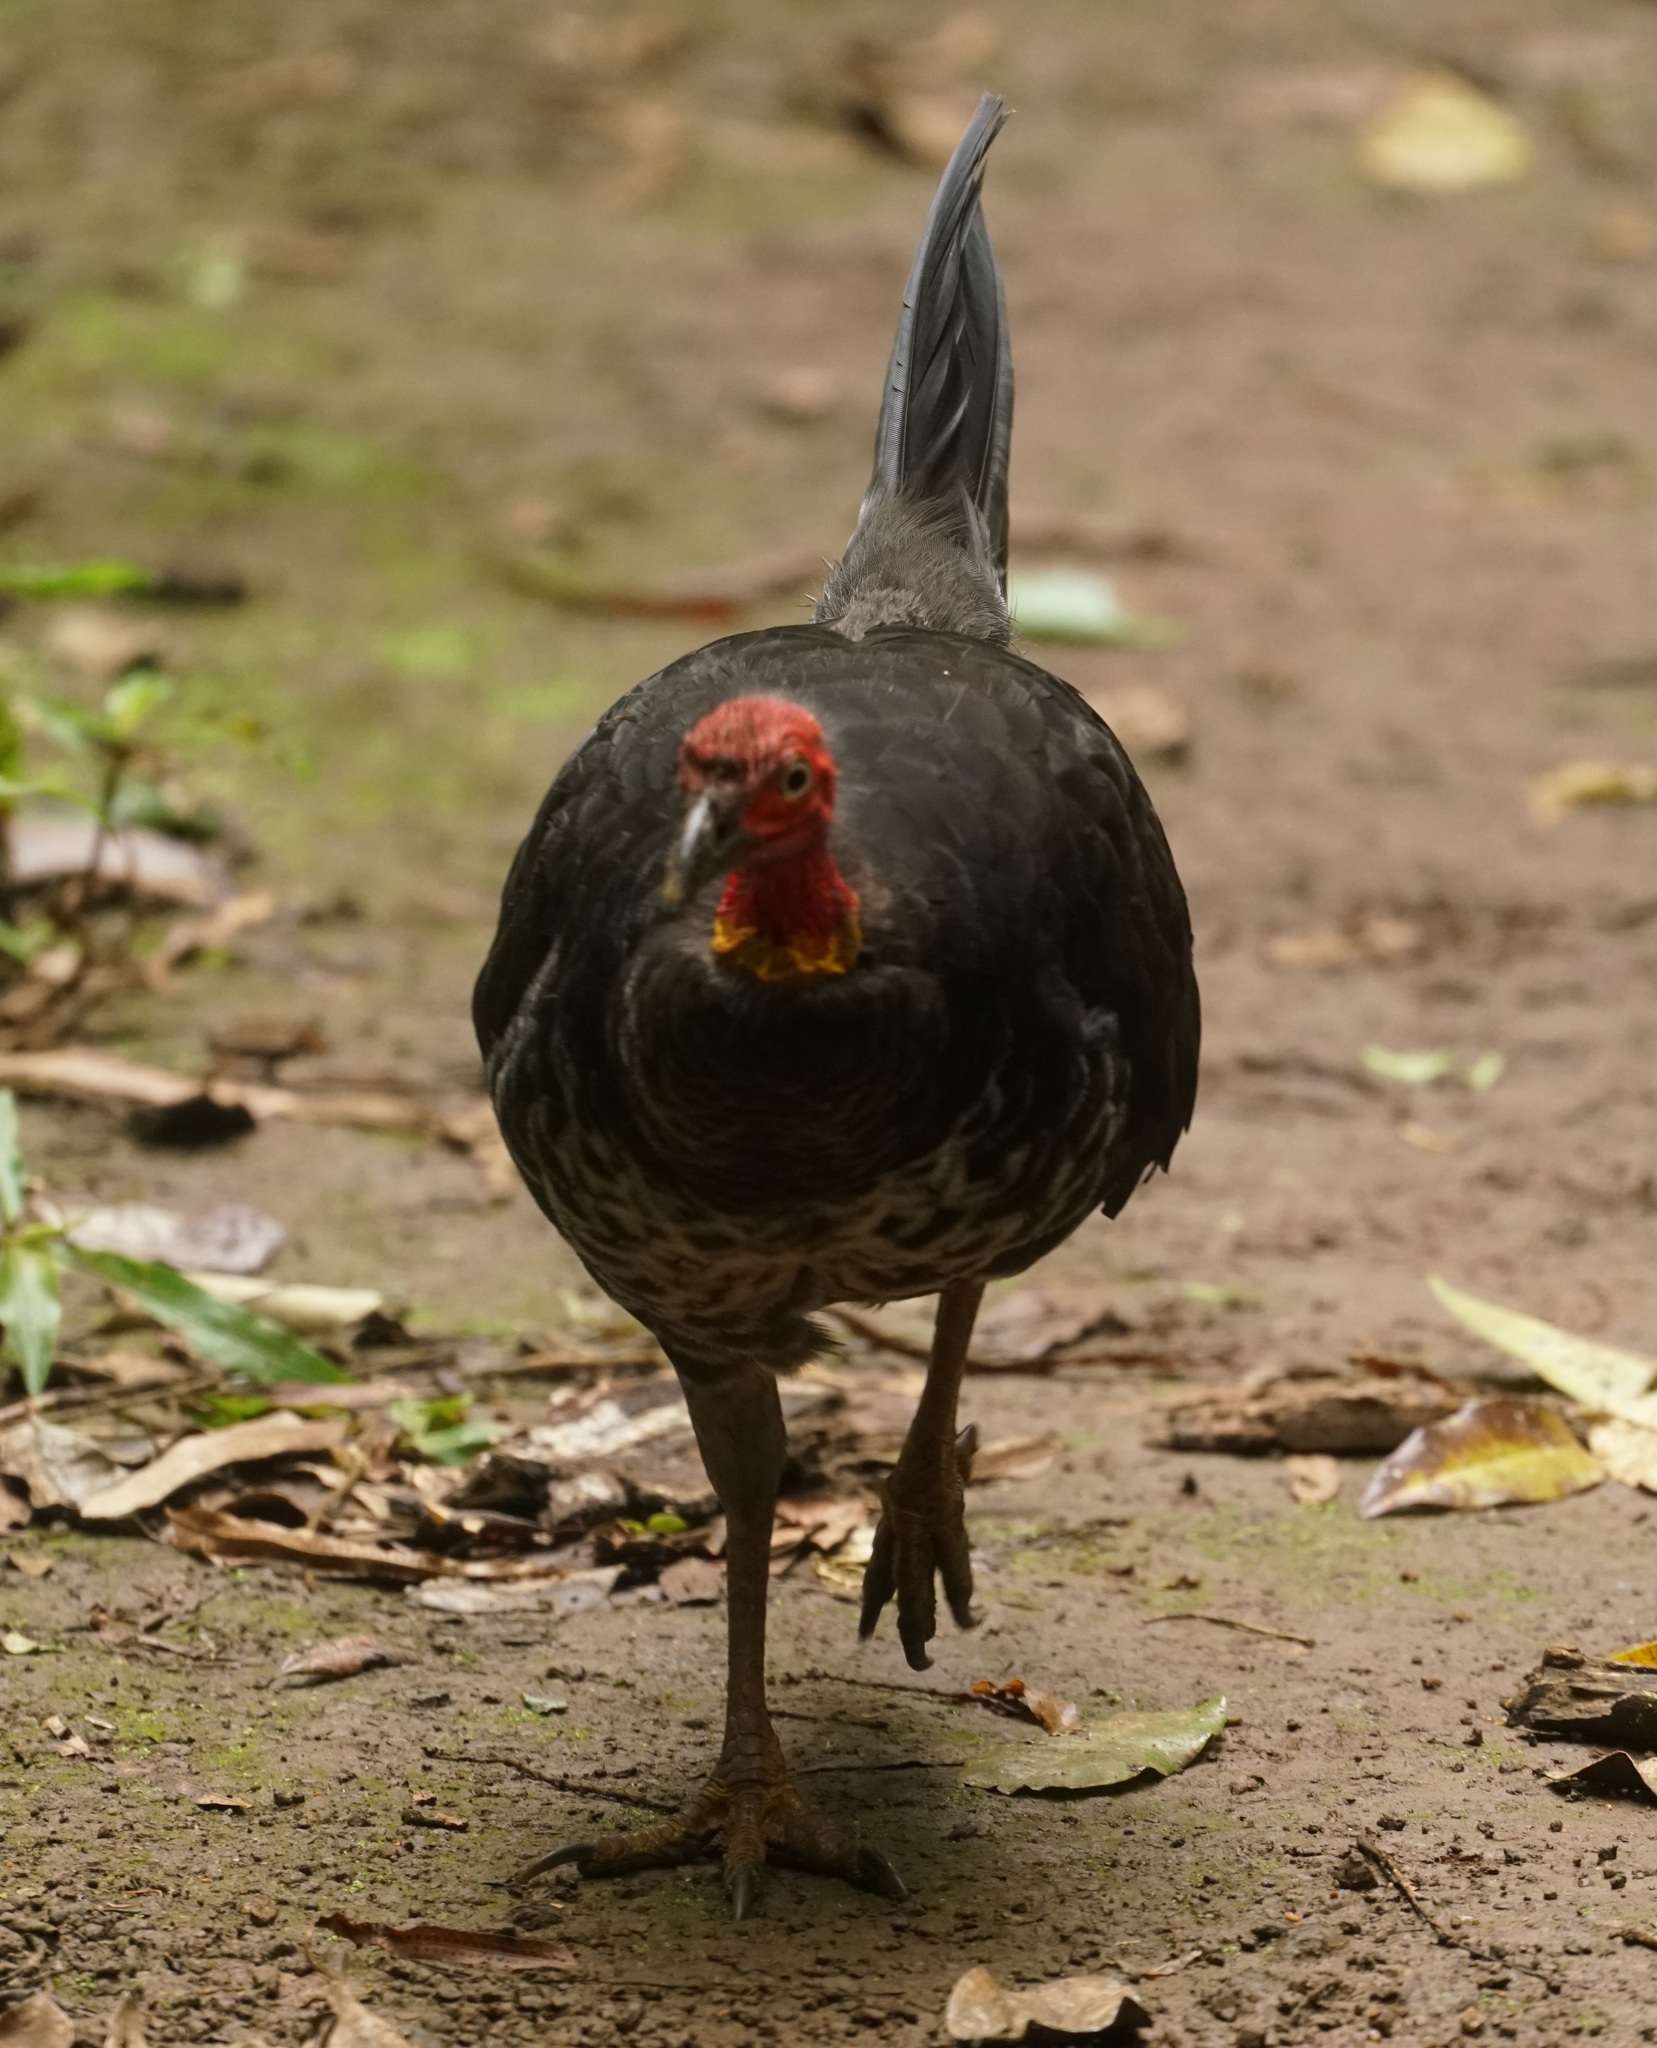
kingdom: Animalia
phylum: Chordata
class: Aves
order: Galliformes
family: Megapodiidae
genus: Alectura
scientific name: Alectura lathami
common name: Australian brushturkey
